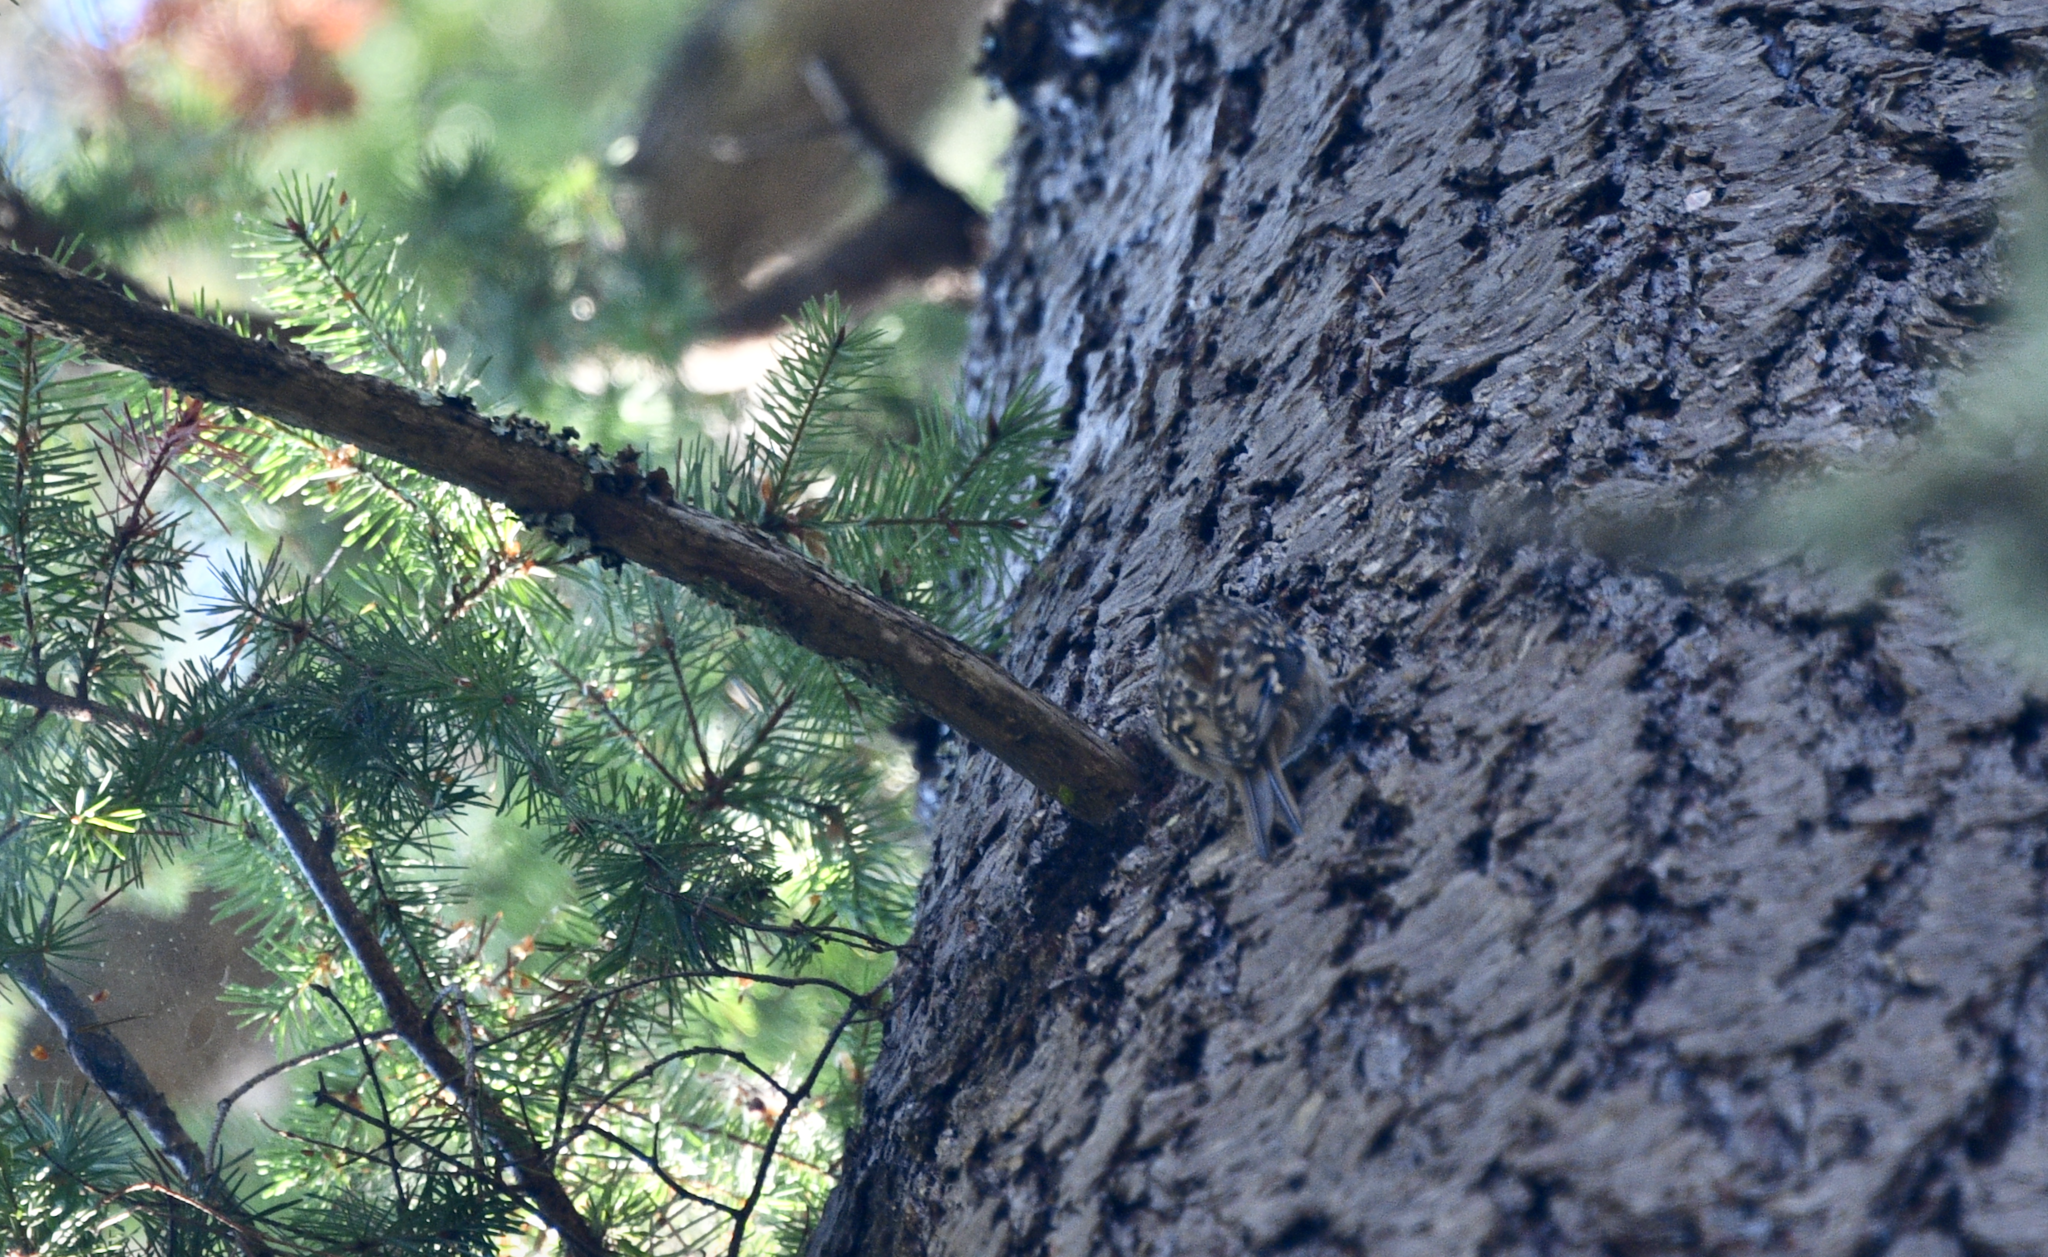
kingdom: Animalia
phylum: Chordata
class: Aves
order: Passeriformes
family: Certhiidae
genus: Certhia
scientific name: Certhia americana
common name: Brown creeper
